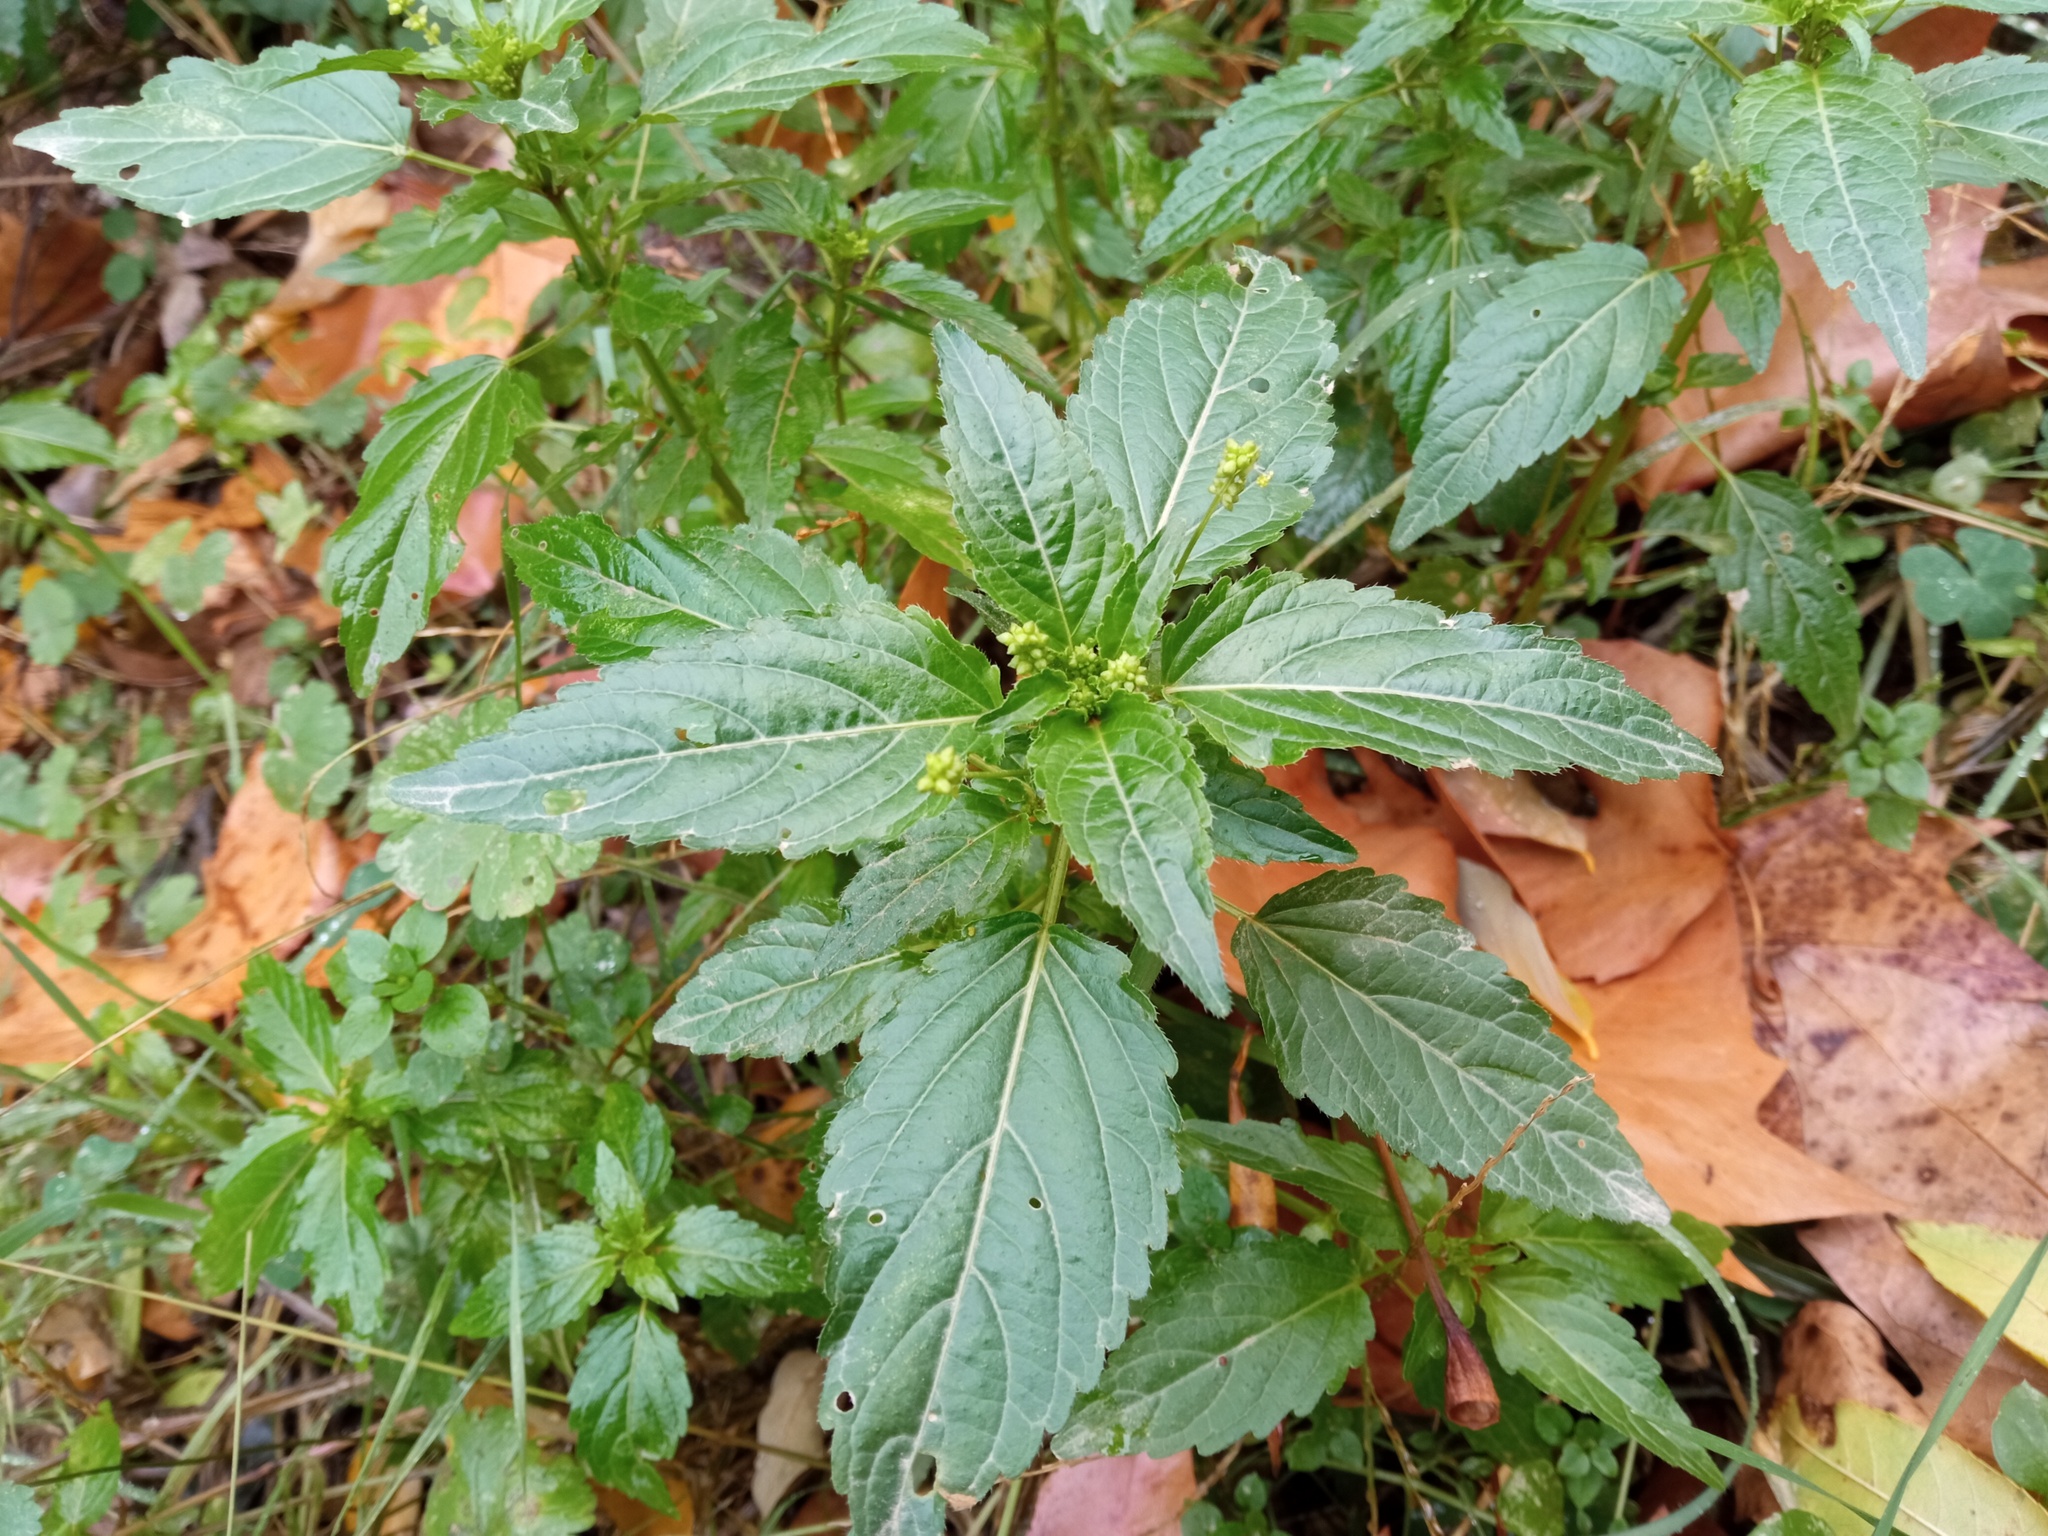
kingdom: Plantae
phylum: Tracheophyta
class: Magnoliopsida
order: Malpighiales
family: Euphorbiaceae
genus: Mercurialis
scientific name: Mercurialis annua
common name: Annual mercury
